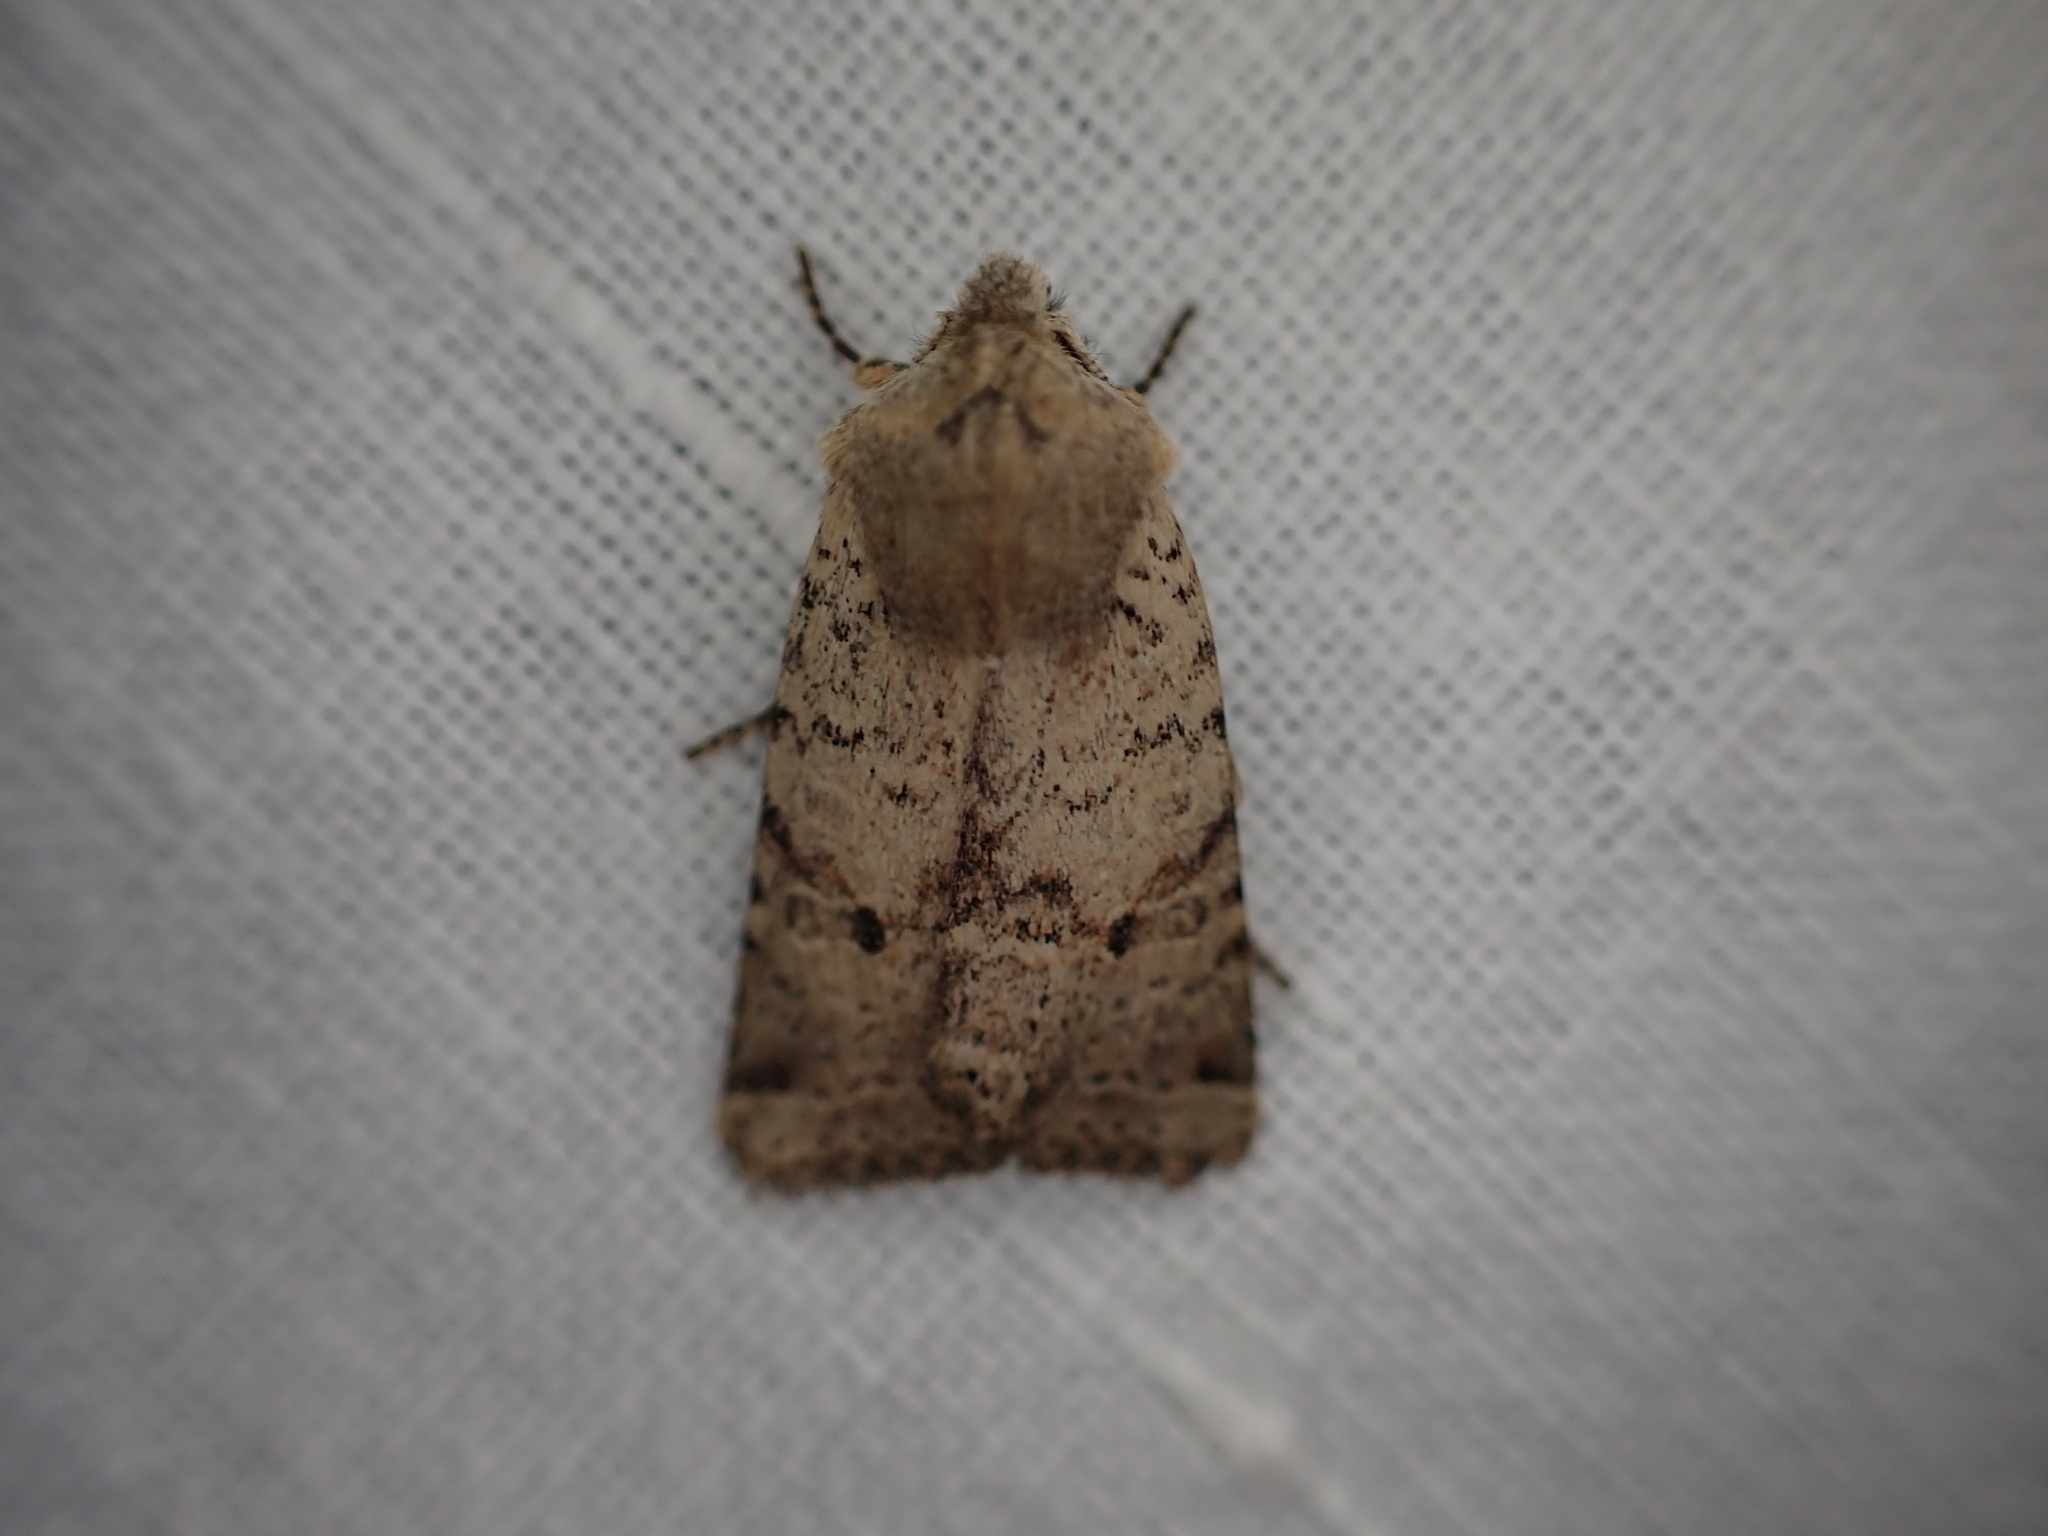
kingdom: Animalia
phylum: Arthropoda
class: Insecta
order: Lepidoptera
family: Noctuidae
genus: Agrochola
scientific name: Agrochola ruticilla
